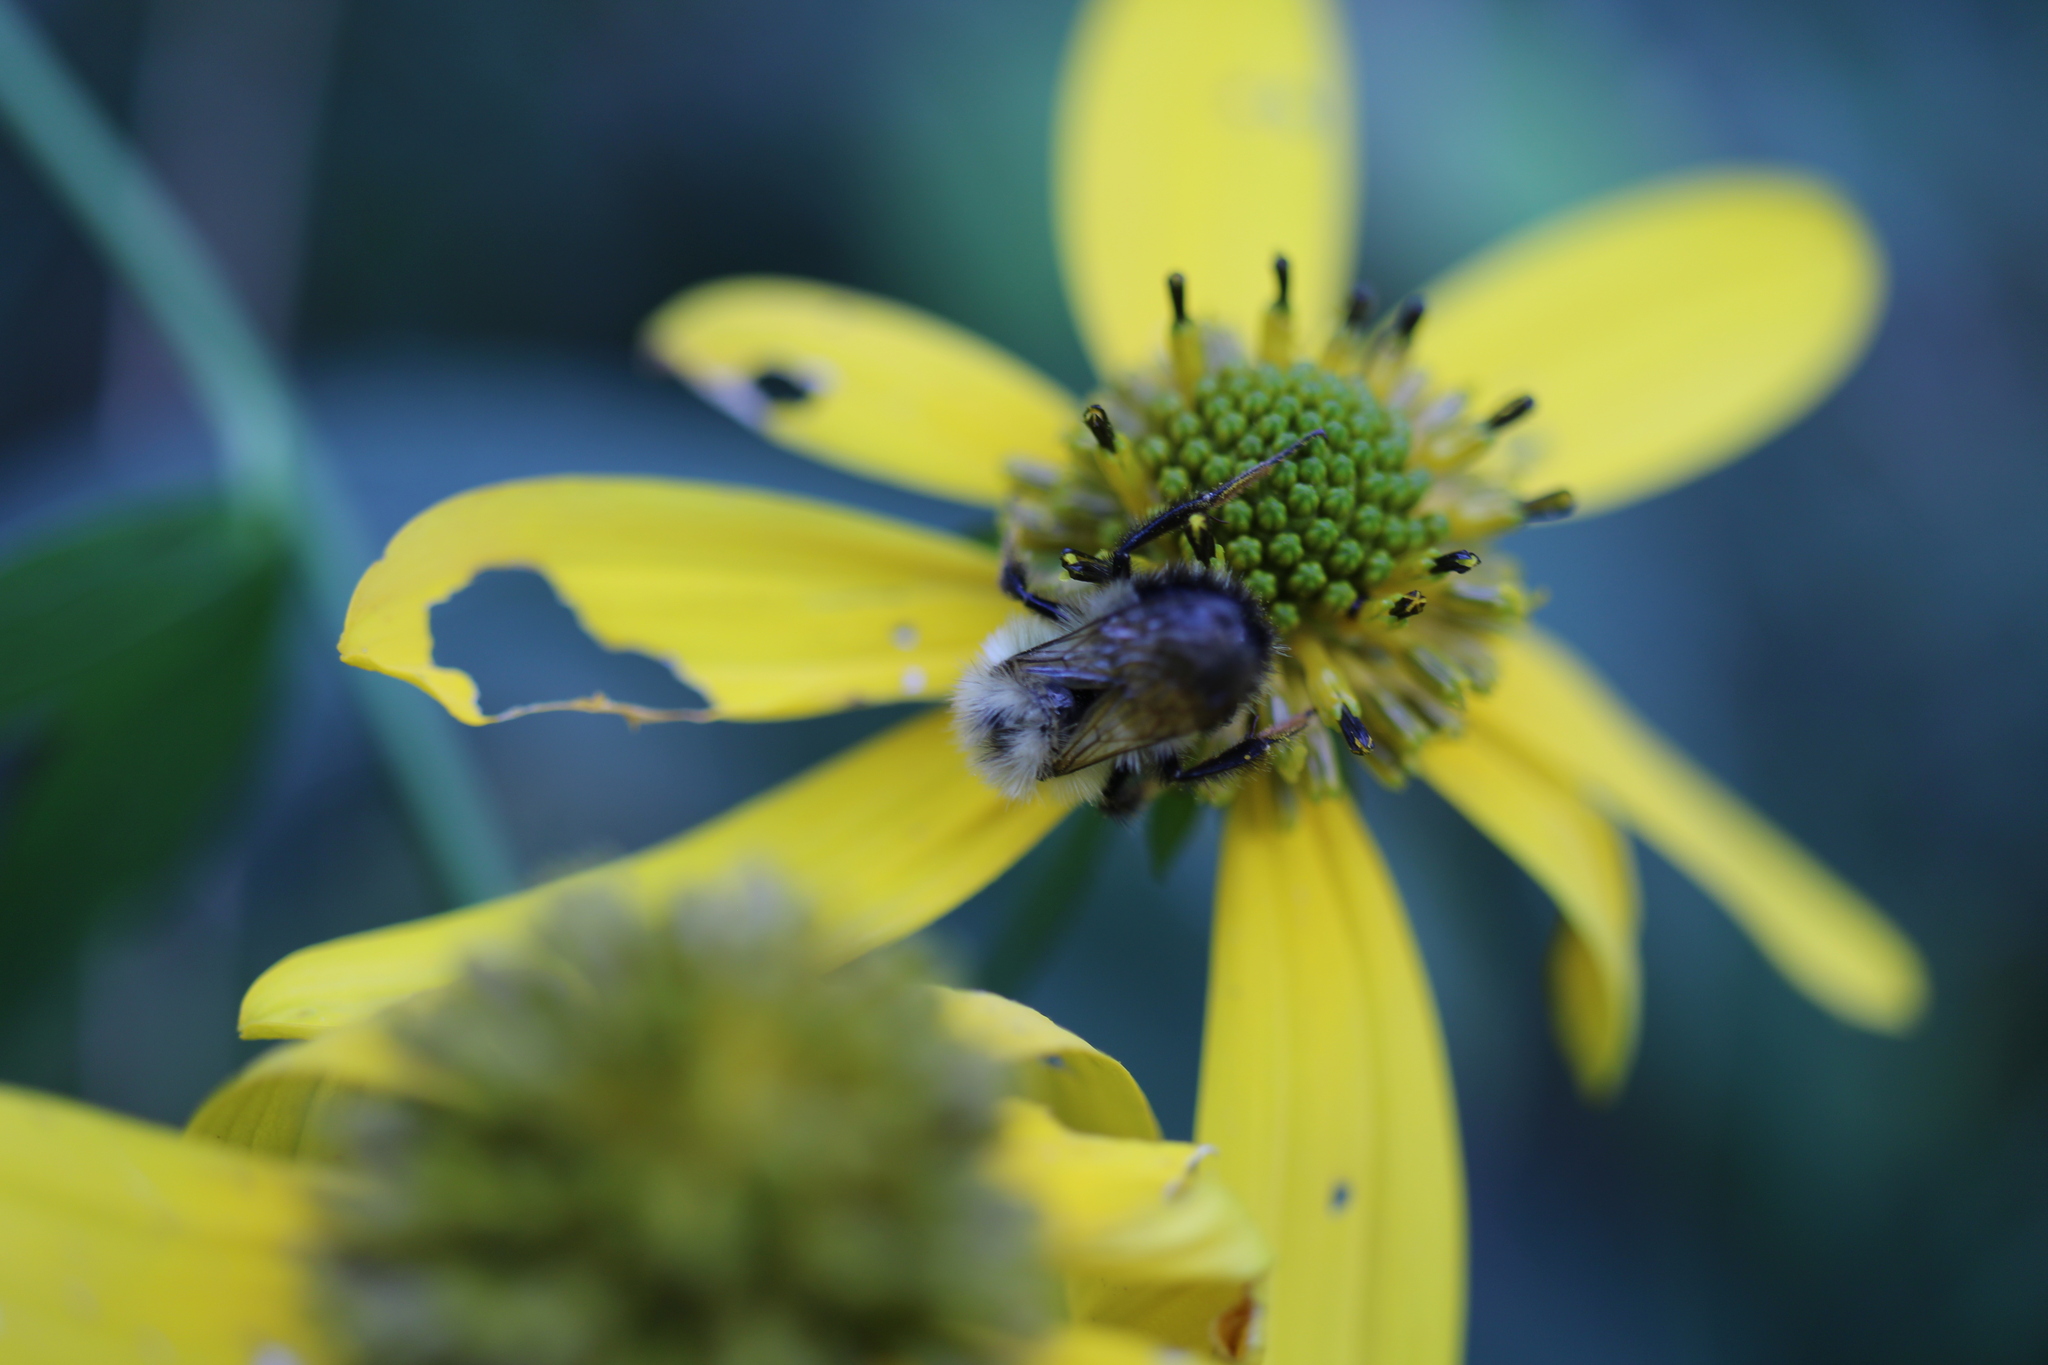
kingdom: Animalia
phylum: Arthropoda
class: Insecta
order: Hymenoptera
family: Apidae
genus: Pyrobombus
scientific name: Pyrobombus
